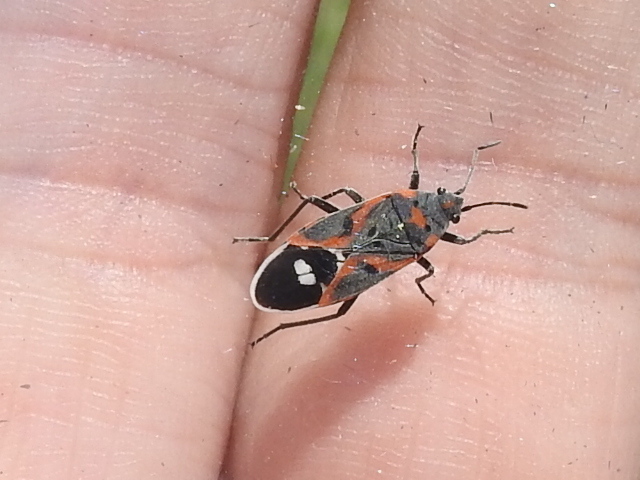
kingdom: Animalia
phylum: Arthropoda
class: Insecta
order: Hemiptera
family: Lygaeidae
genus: Lygaeus
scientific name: Lygaeus kalmii
